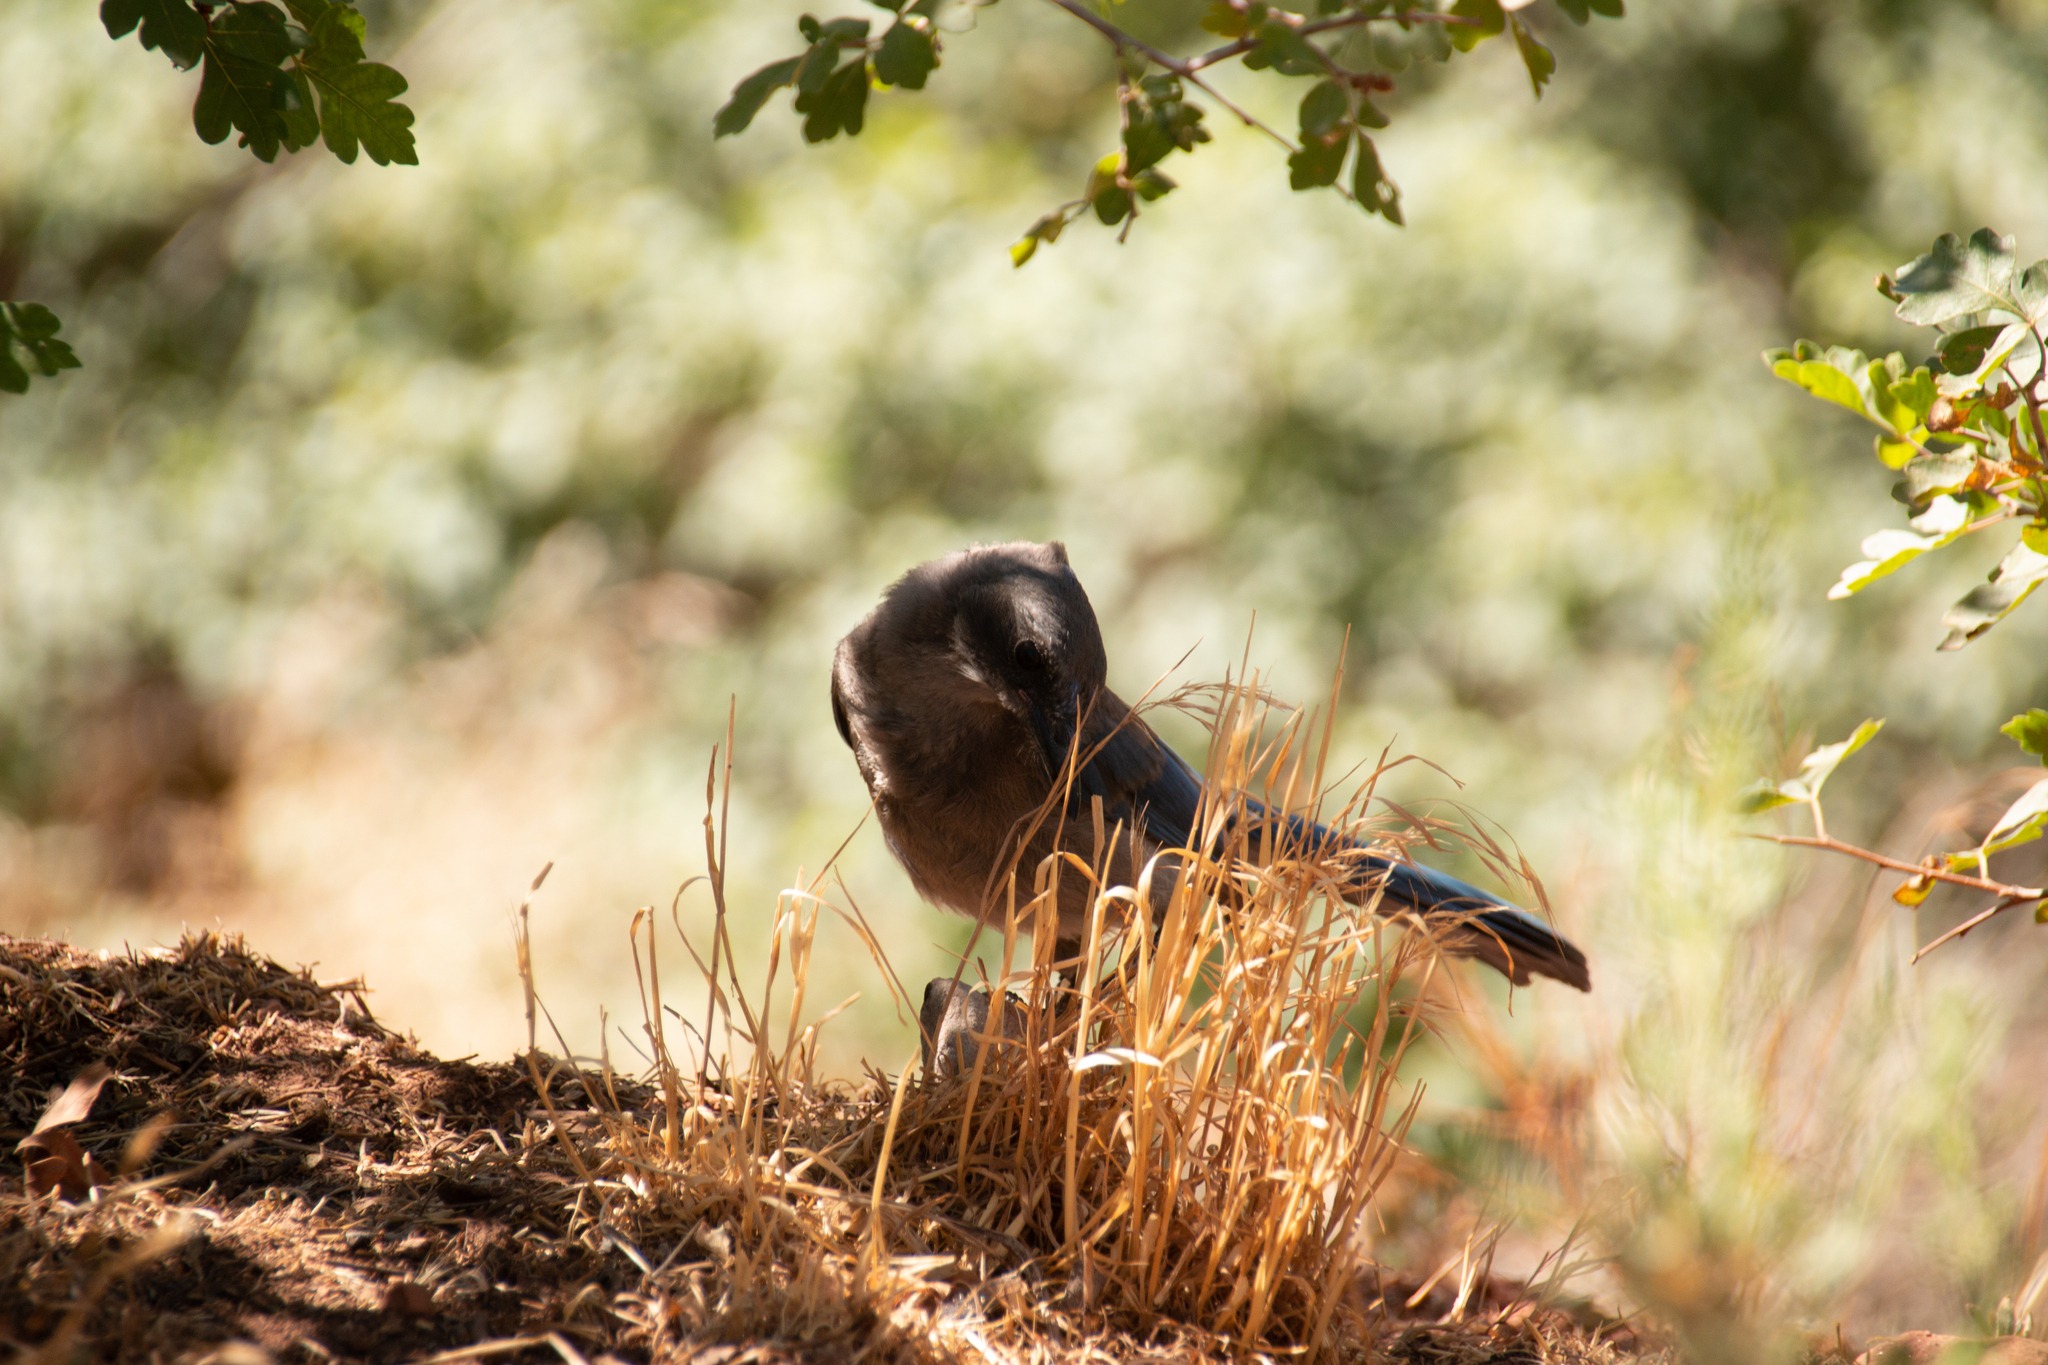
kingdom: Animalia
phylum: Chordata
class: Aves
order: Passeriformes
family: Corvidae
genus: Aphelocoma
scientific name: Aphelocoma woodhouseii
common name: Woodhouse's scrub-jay
